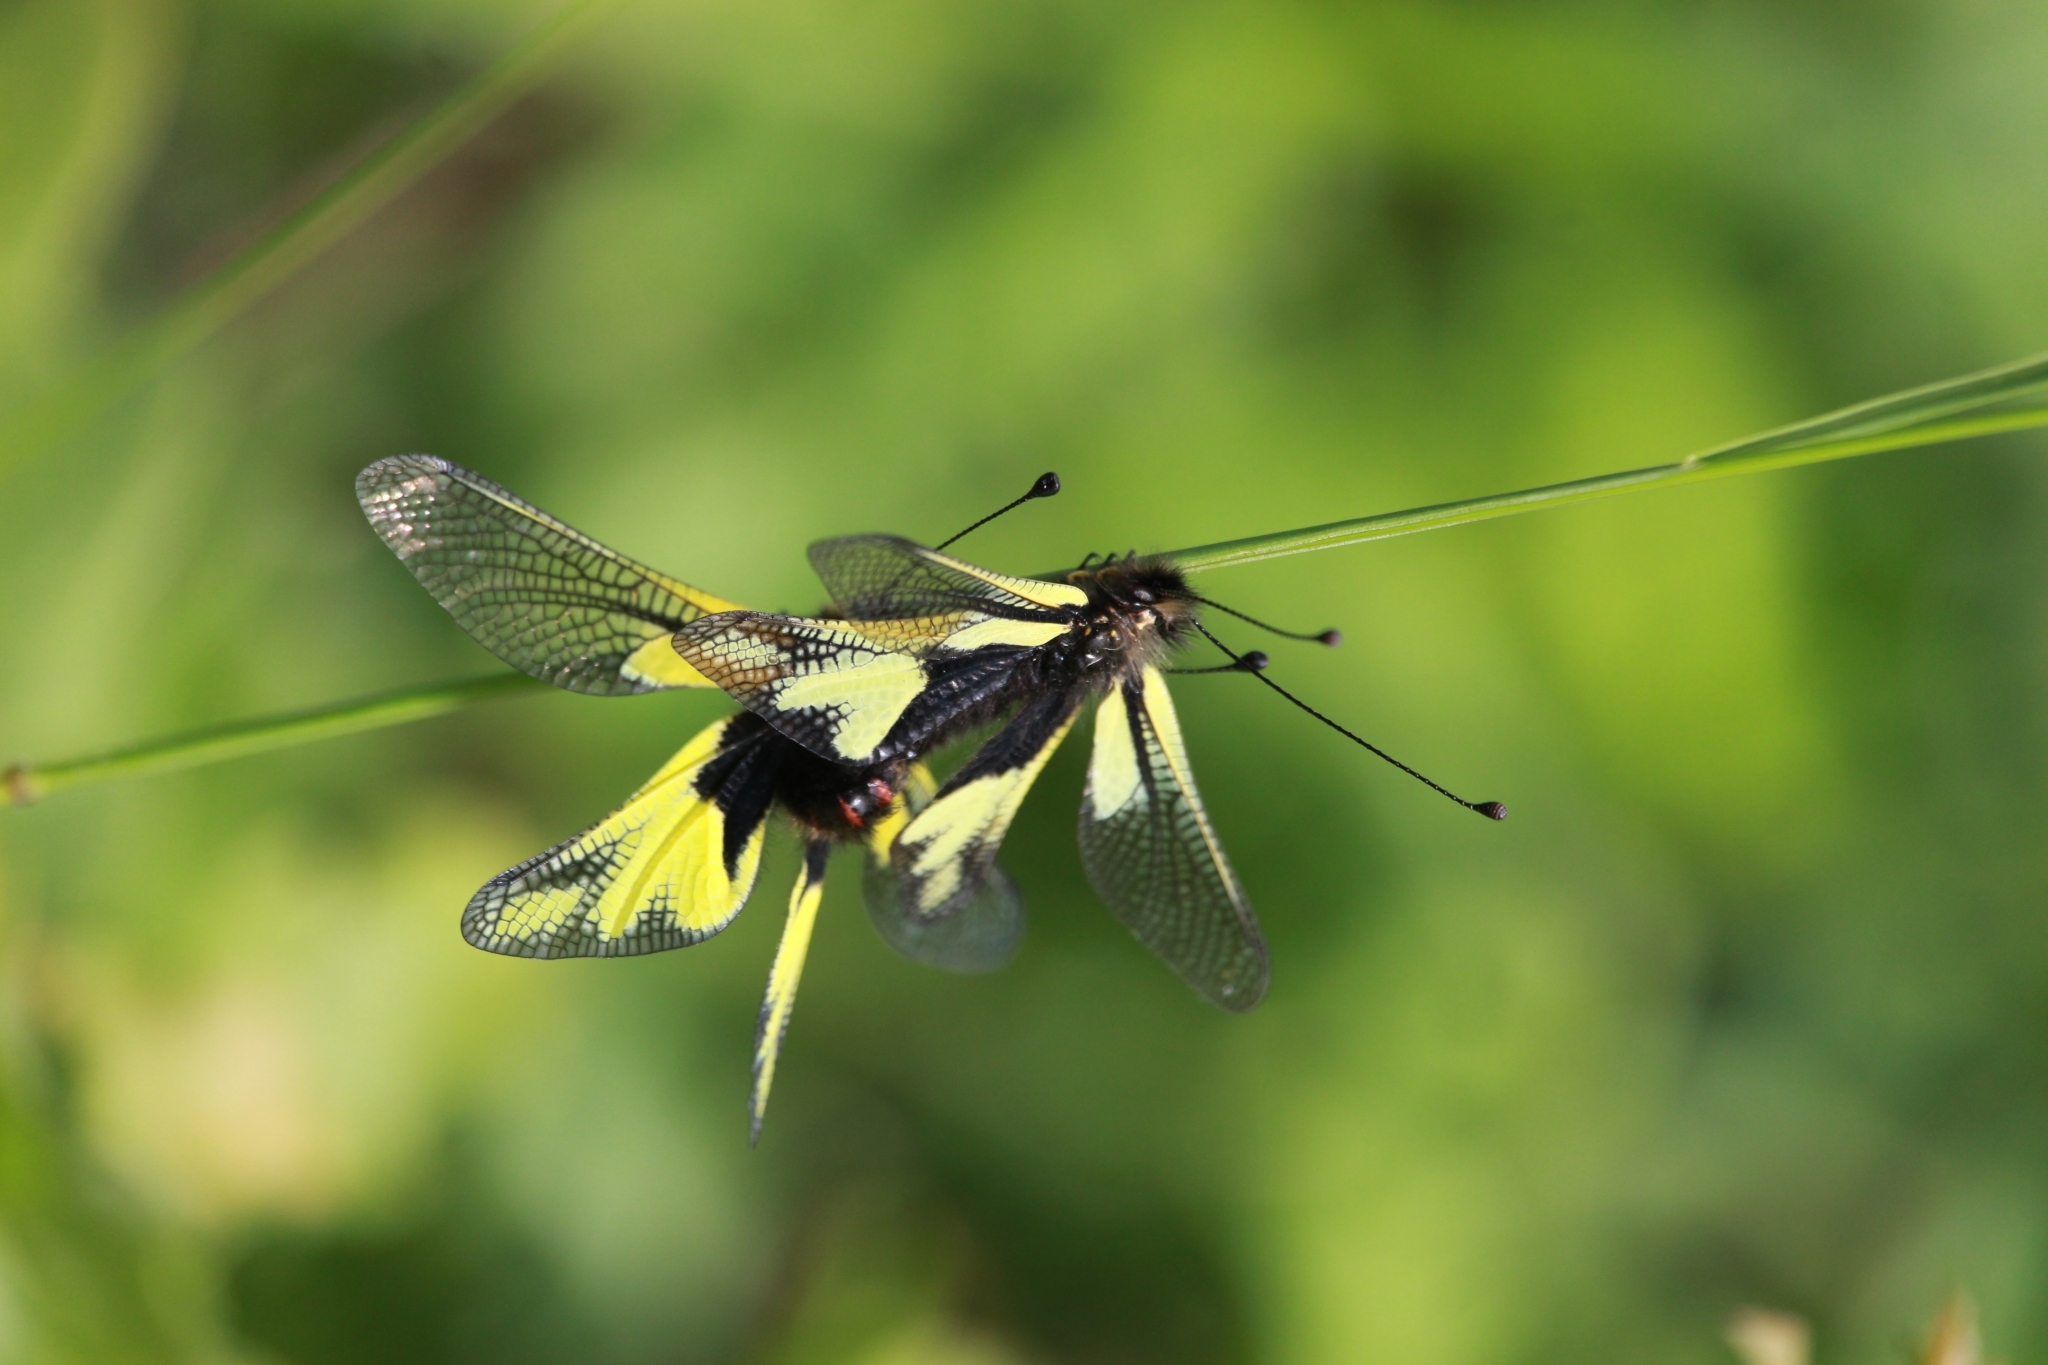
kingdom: Animalia
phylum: Arthropoda
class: Insecta
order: Neuroptera
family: Ascalaphidae
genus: Libelloides
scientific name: Libelloides coccajus
